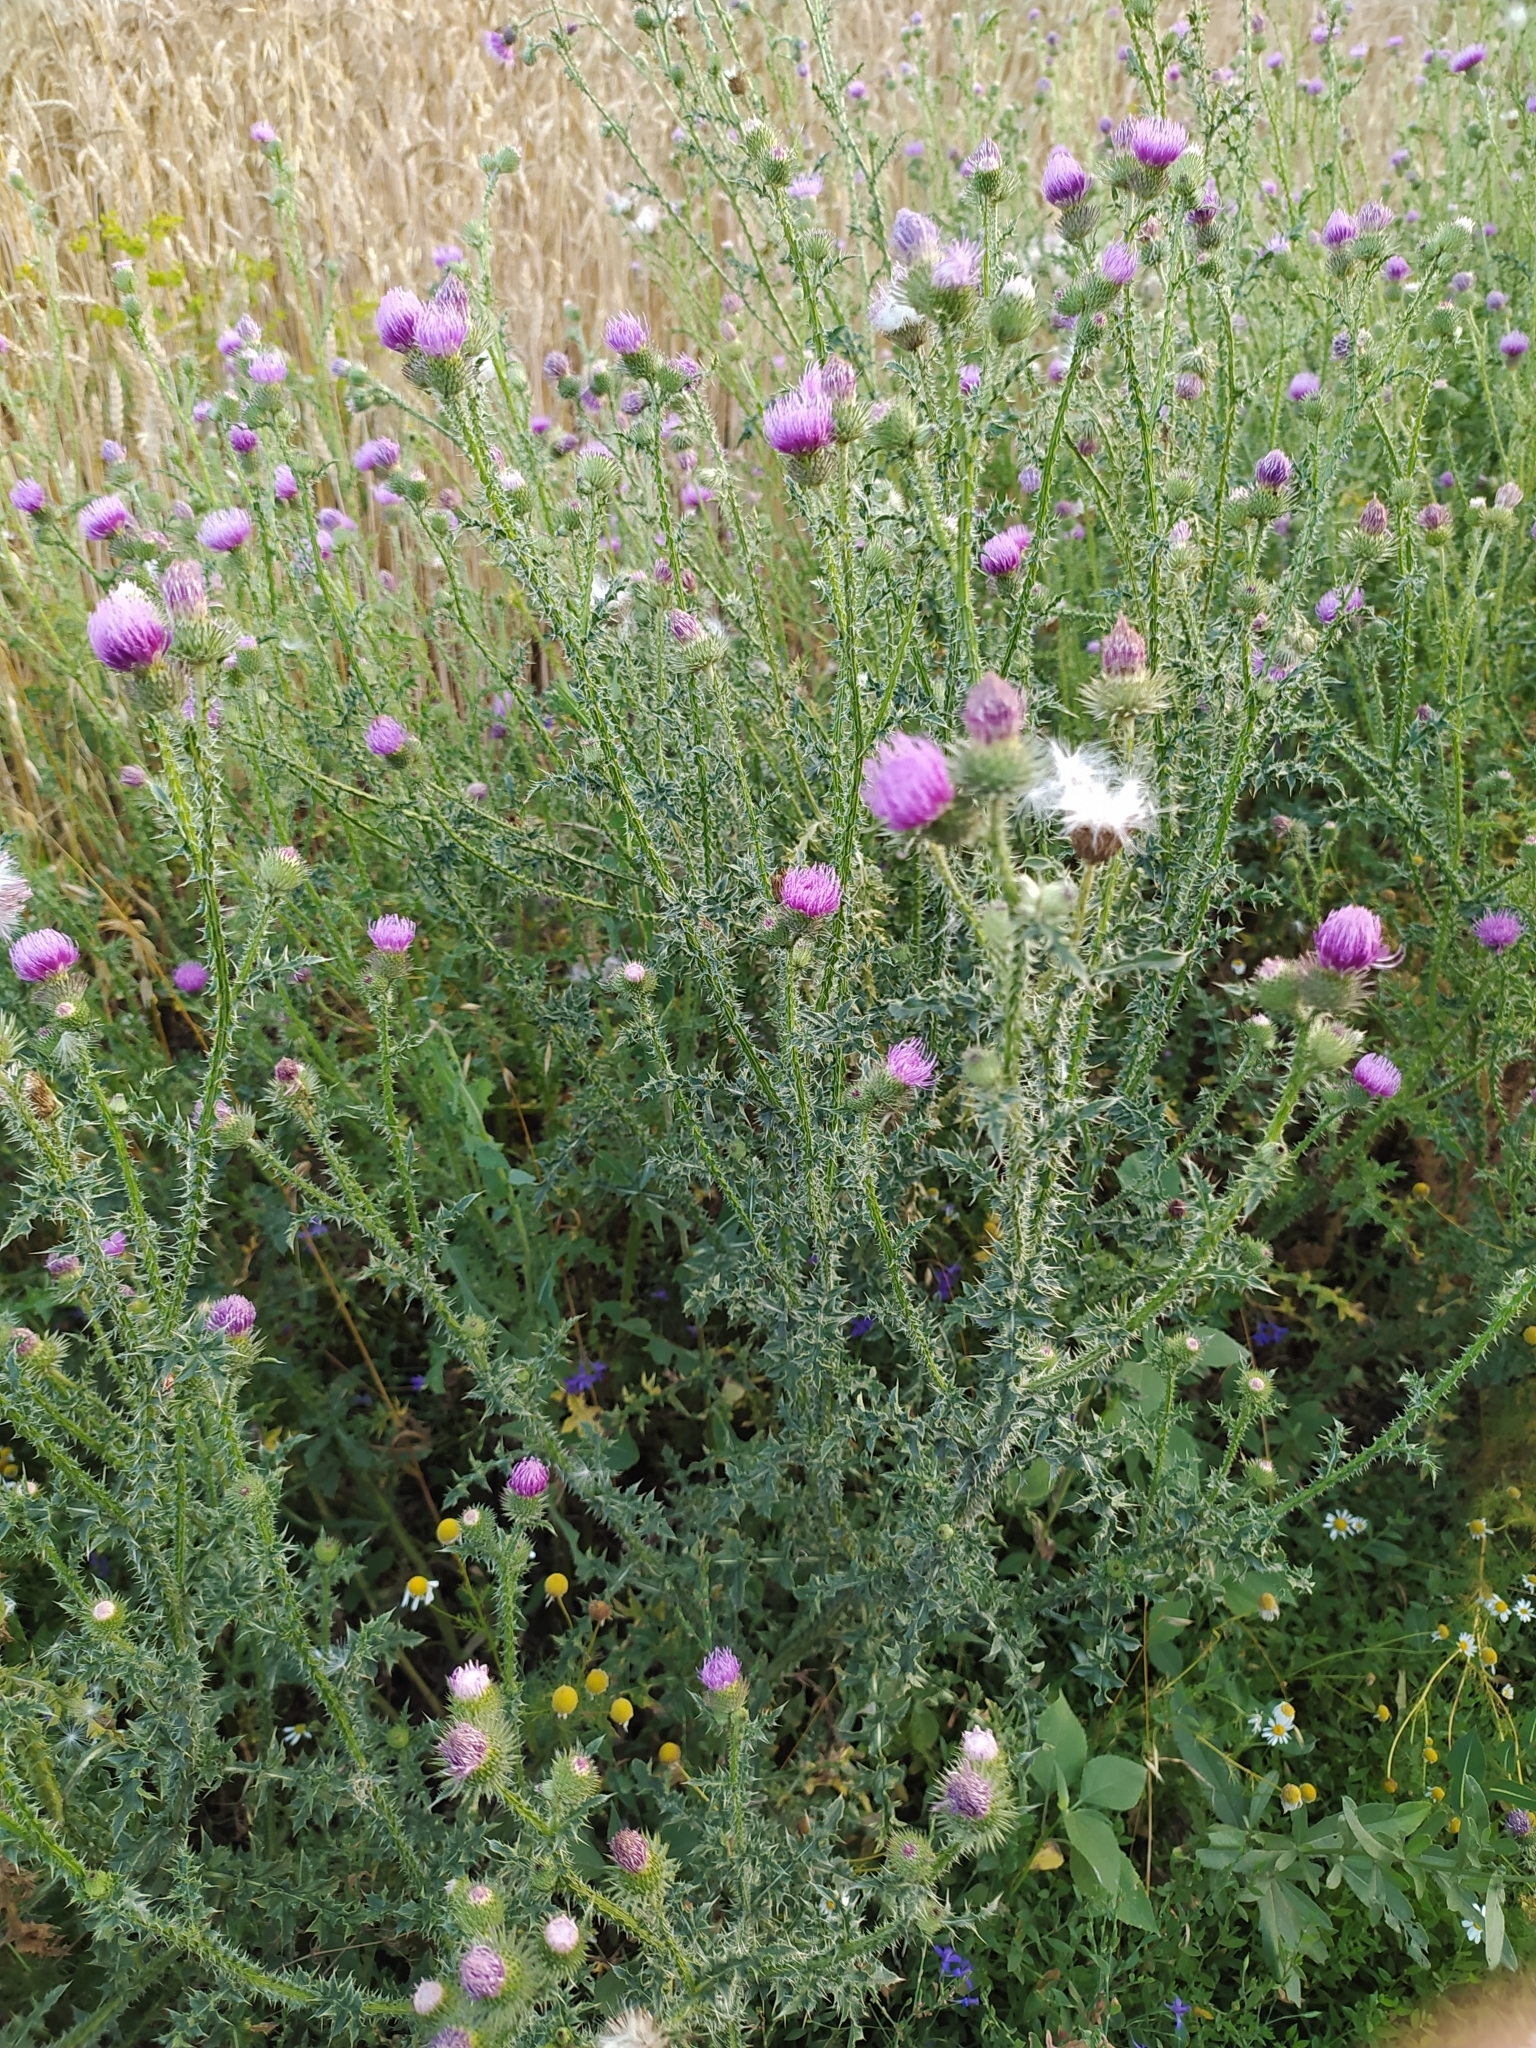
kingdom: Plantae
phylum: Tracheophyta
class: Magnoliopsida
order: Asterales
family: Asteraceae
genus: Carduus
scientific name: Carduus acanthoides
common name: Plumeless thistle
